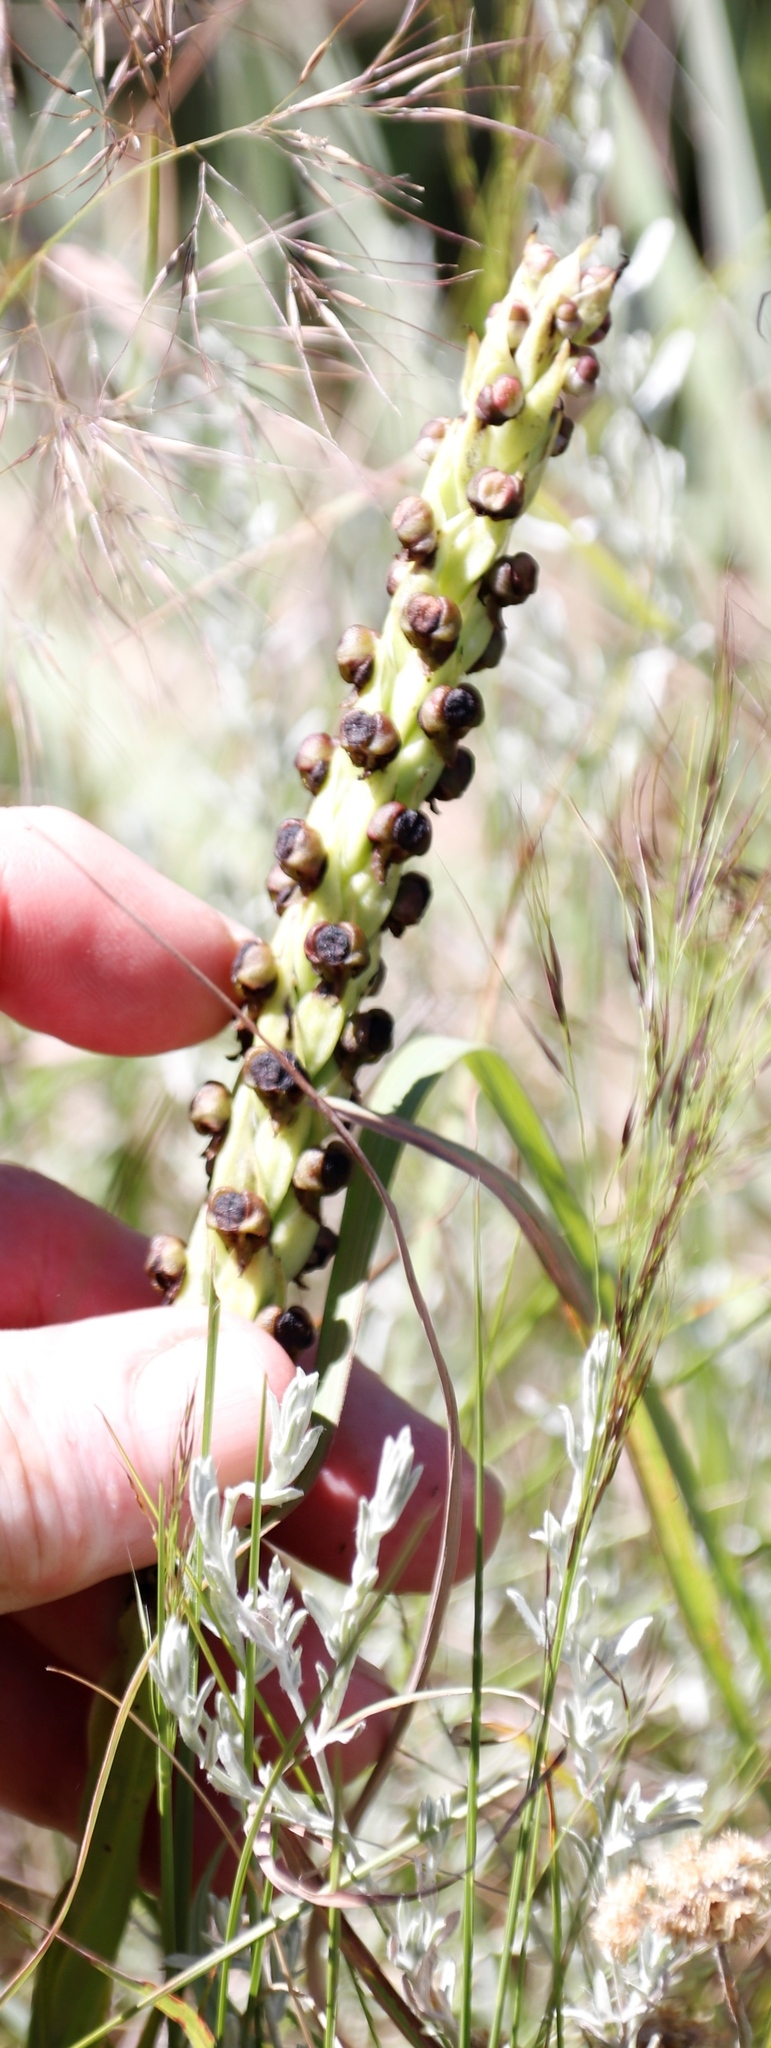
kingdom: Plantae
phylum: Tracheophyta
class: Liliopsida
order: Asparagales
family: Orchidaceae
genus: Corycium
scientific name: Corycium nigrescens
